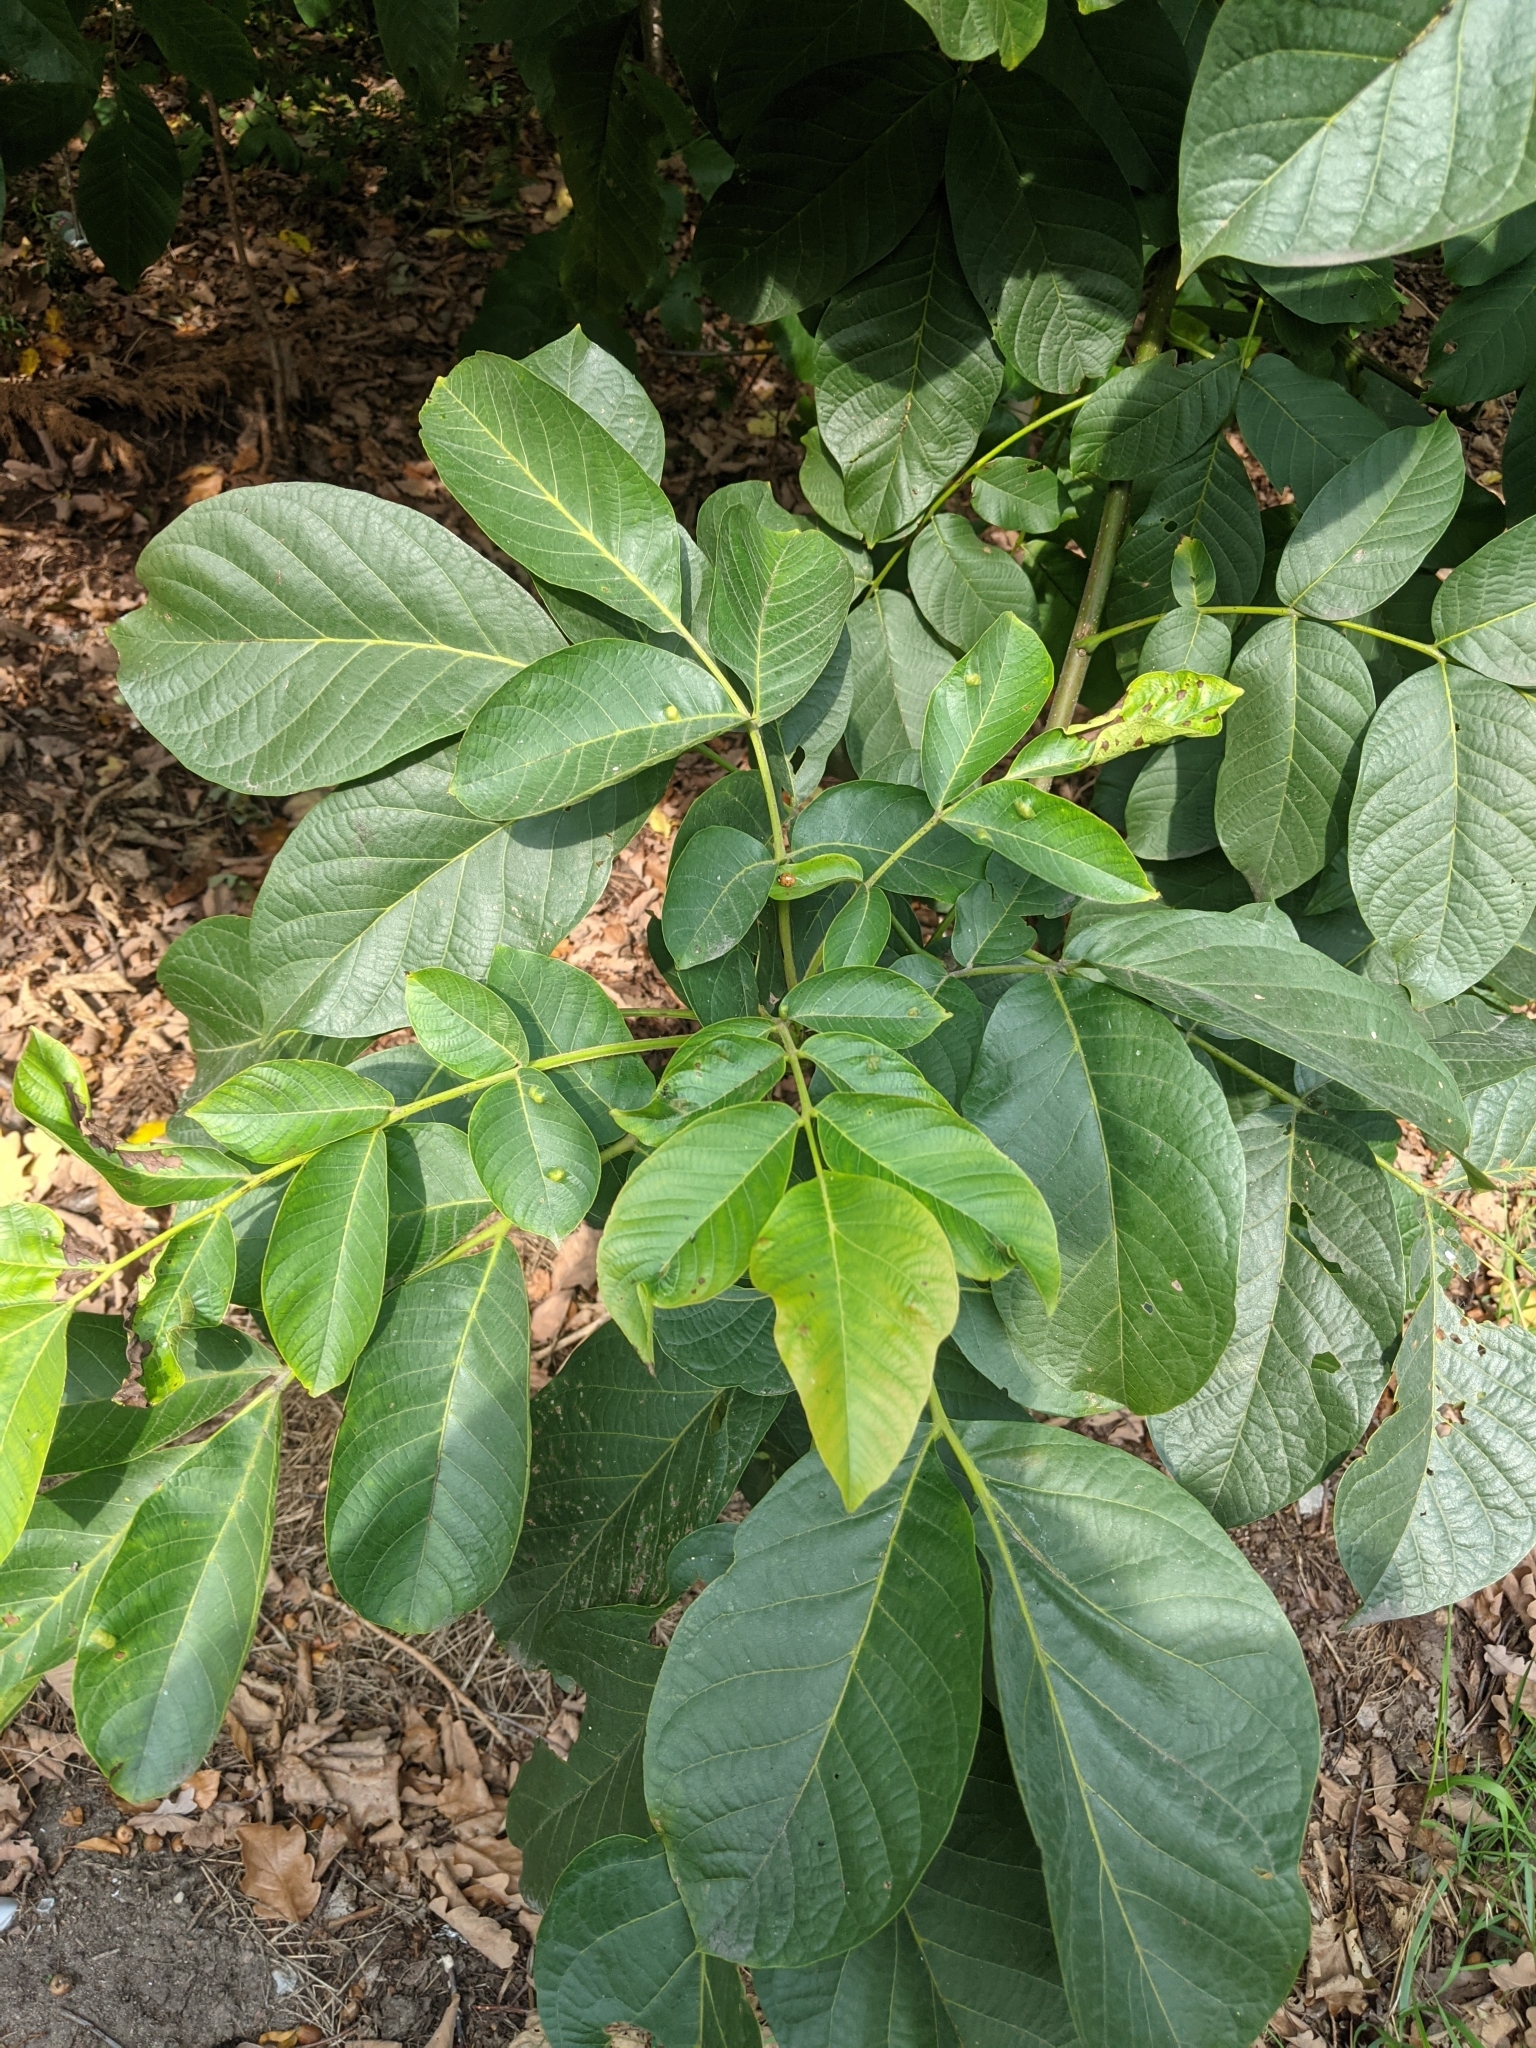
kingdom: Plantae
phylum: Tracheophyta
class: Magnoliopsida
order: Fagales
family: Juglandaceae
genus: Juglans
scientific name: Juglans regia
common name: Walnut
